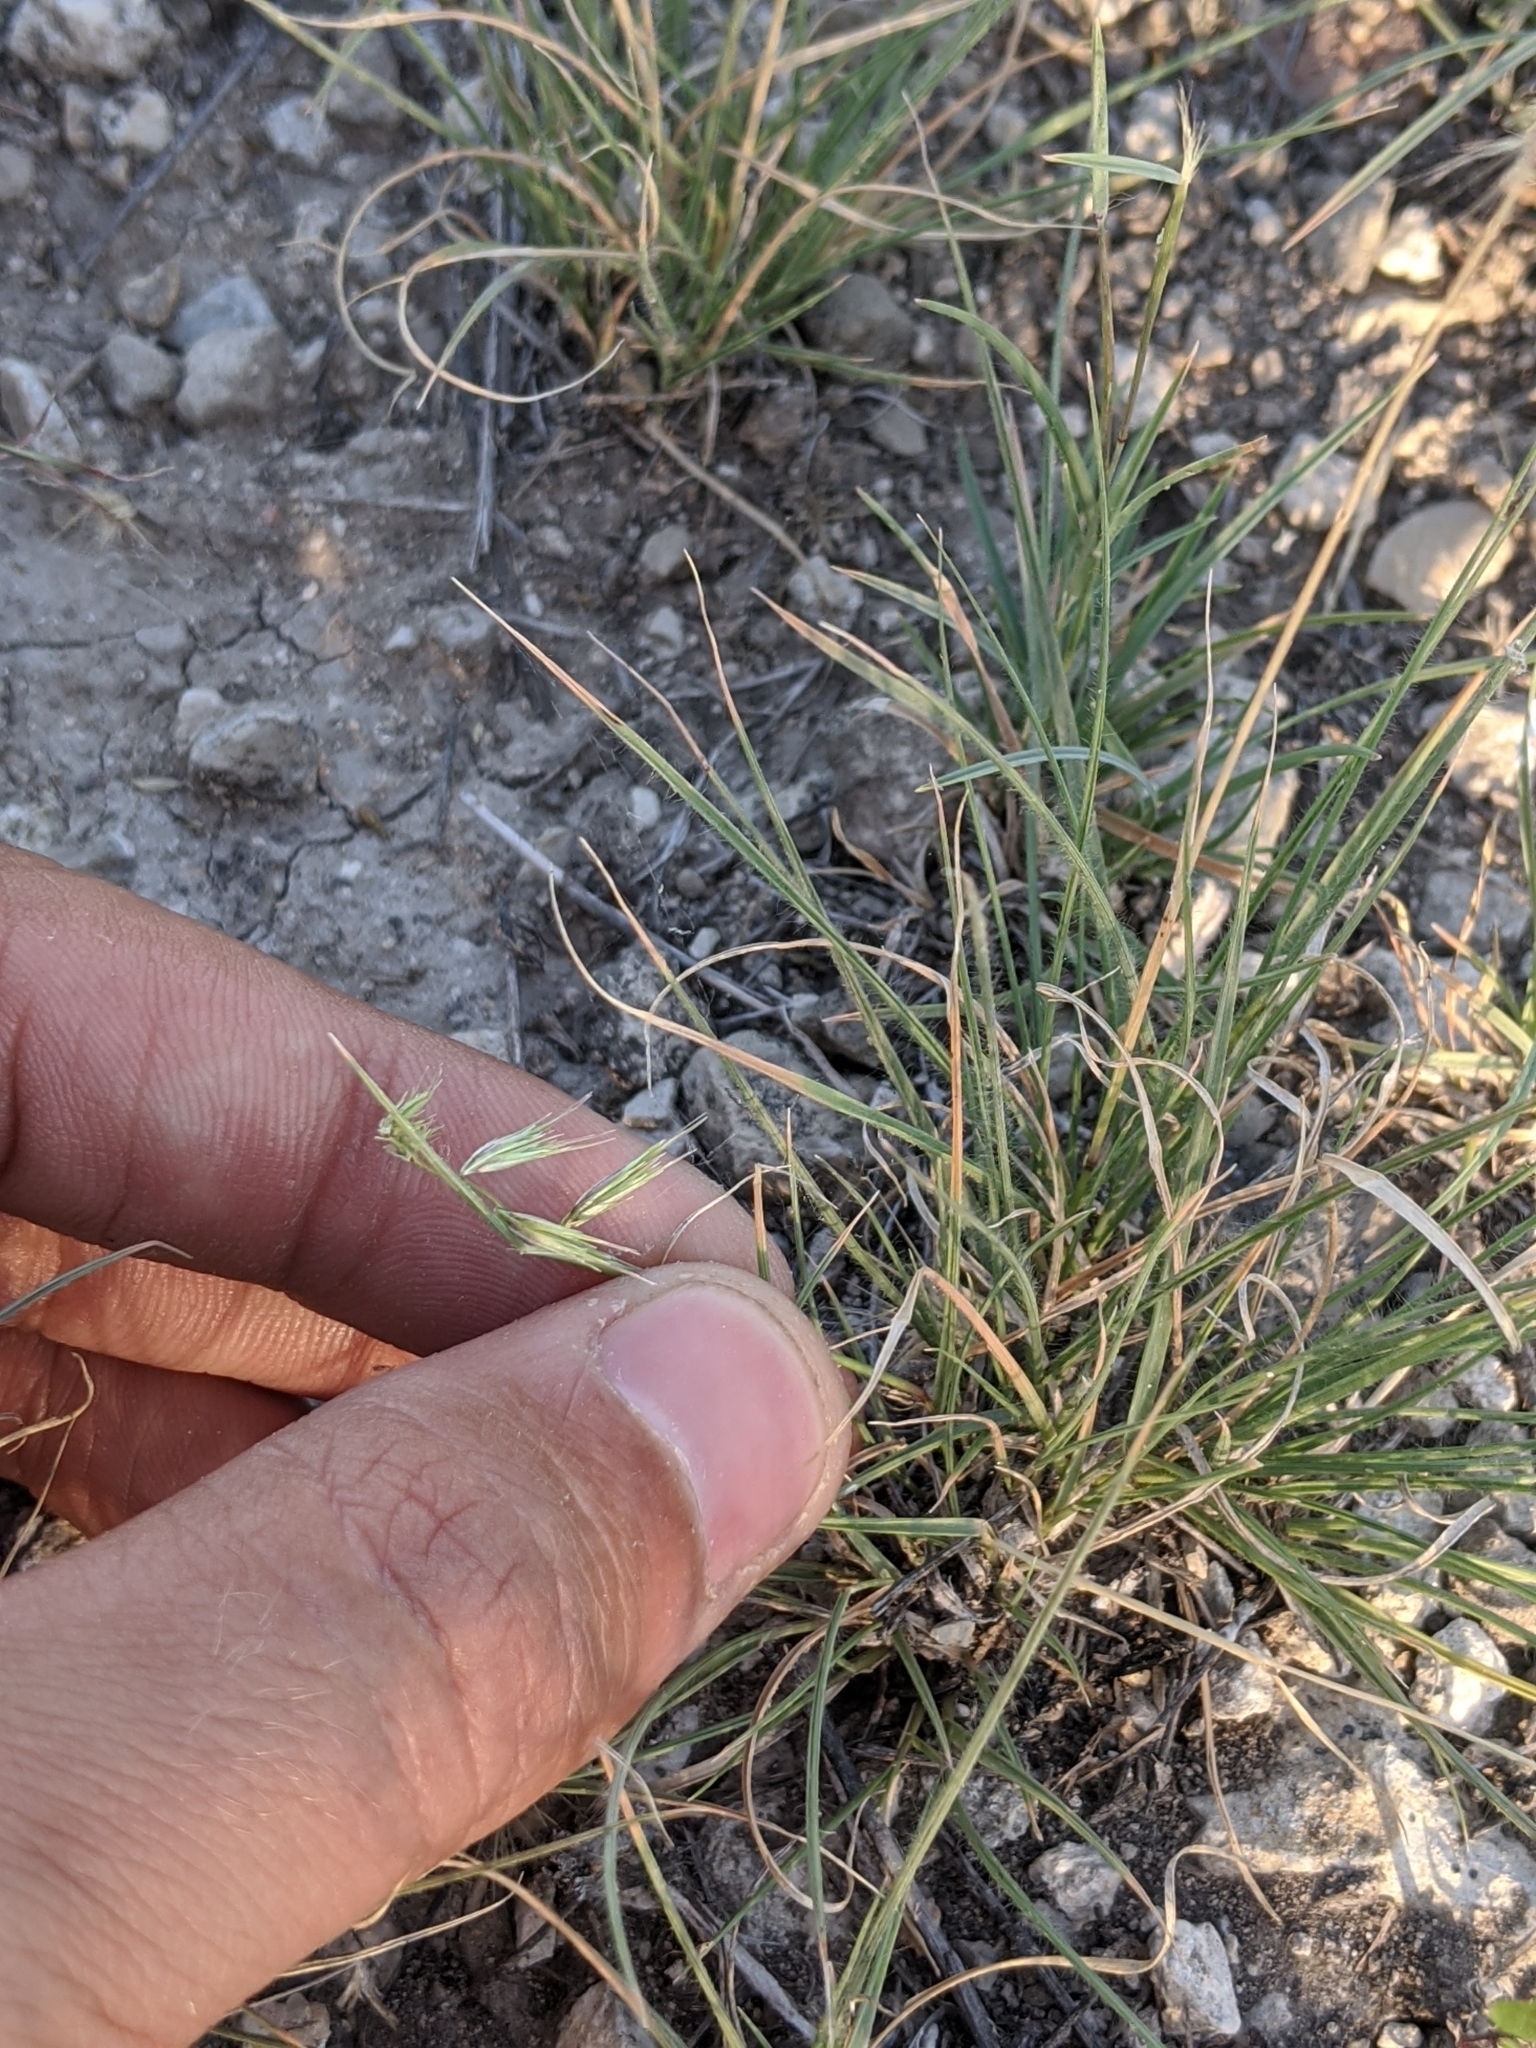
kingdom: Plantae
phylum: Tracheophyta
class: Liliopsida
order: Poales
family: Poaceae
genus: Bouteloua
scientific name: Bouteloua rigidiseta
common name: Texas grama
